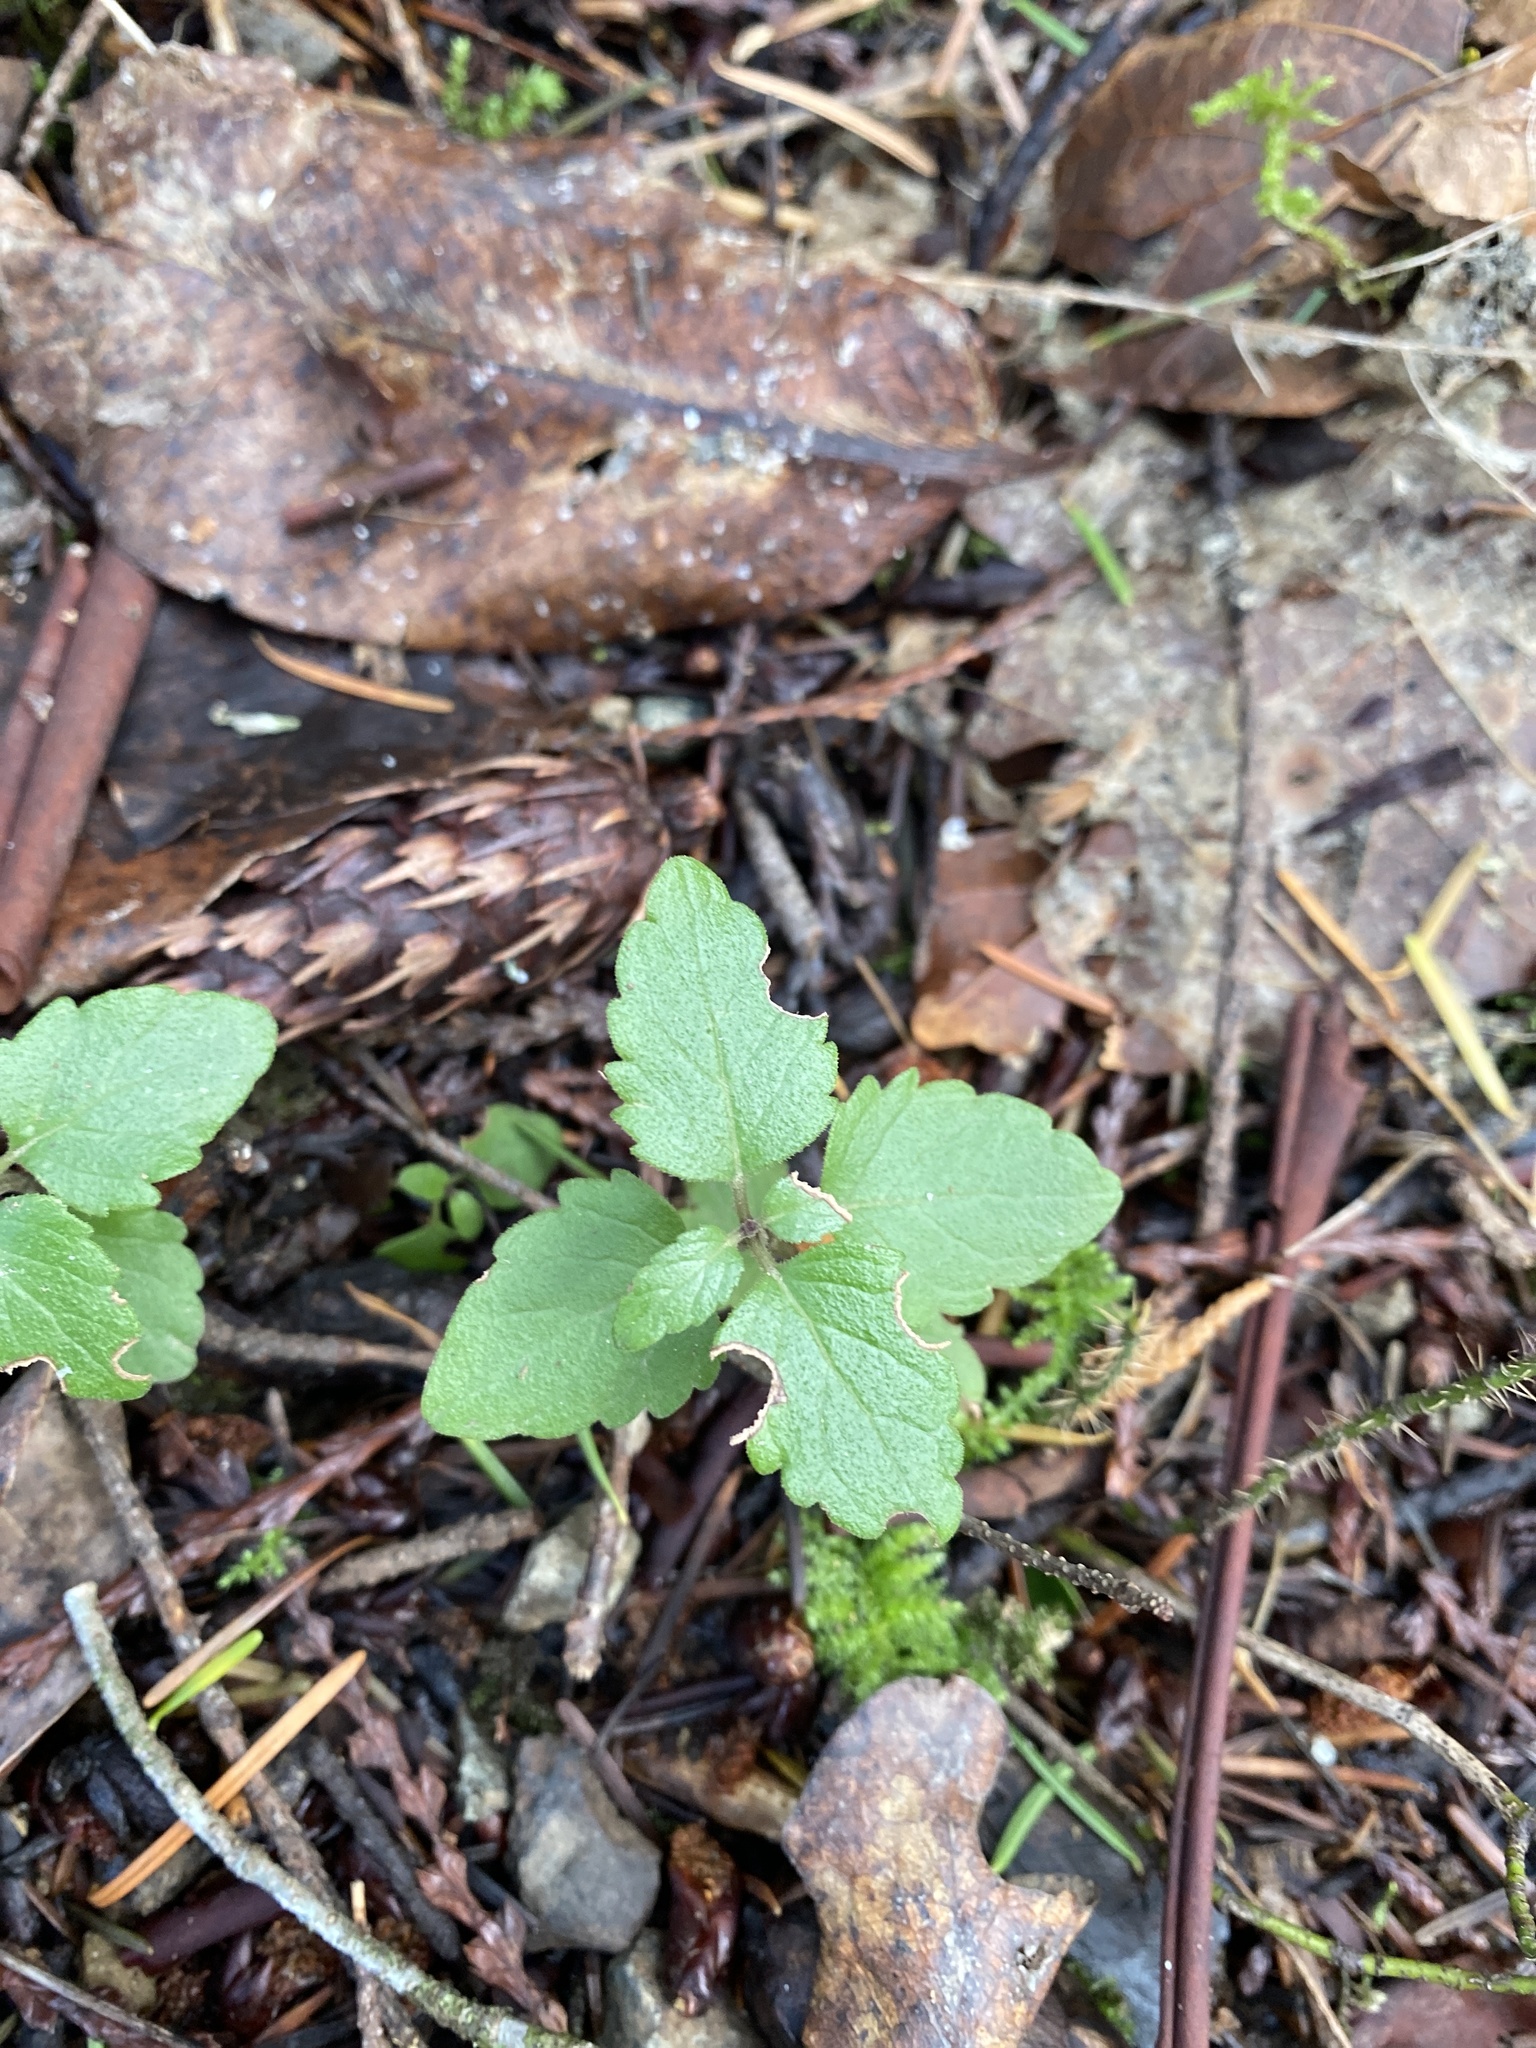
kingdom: Plantae
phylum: Tracheophyta
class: Magnoliopsida
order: Lamiales
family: Lamiaceae
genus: Micromeria
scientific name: Micromeria douglasii
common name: Yerba buena
